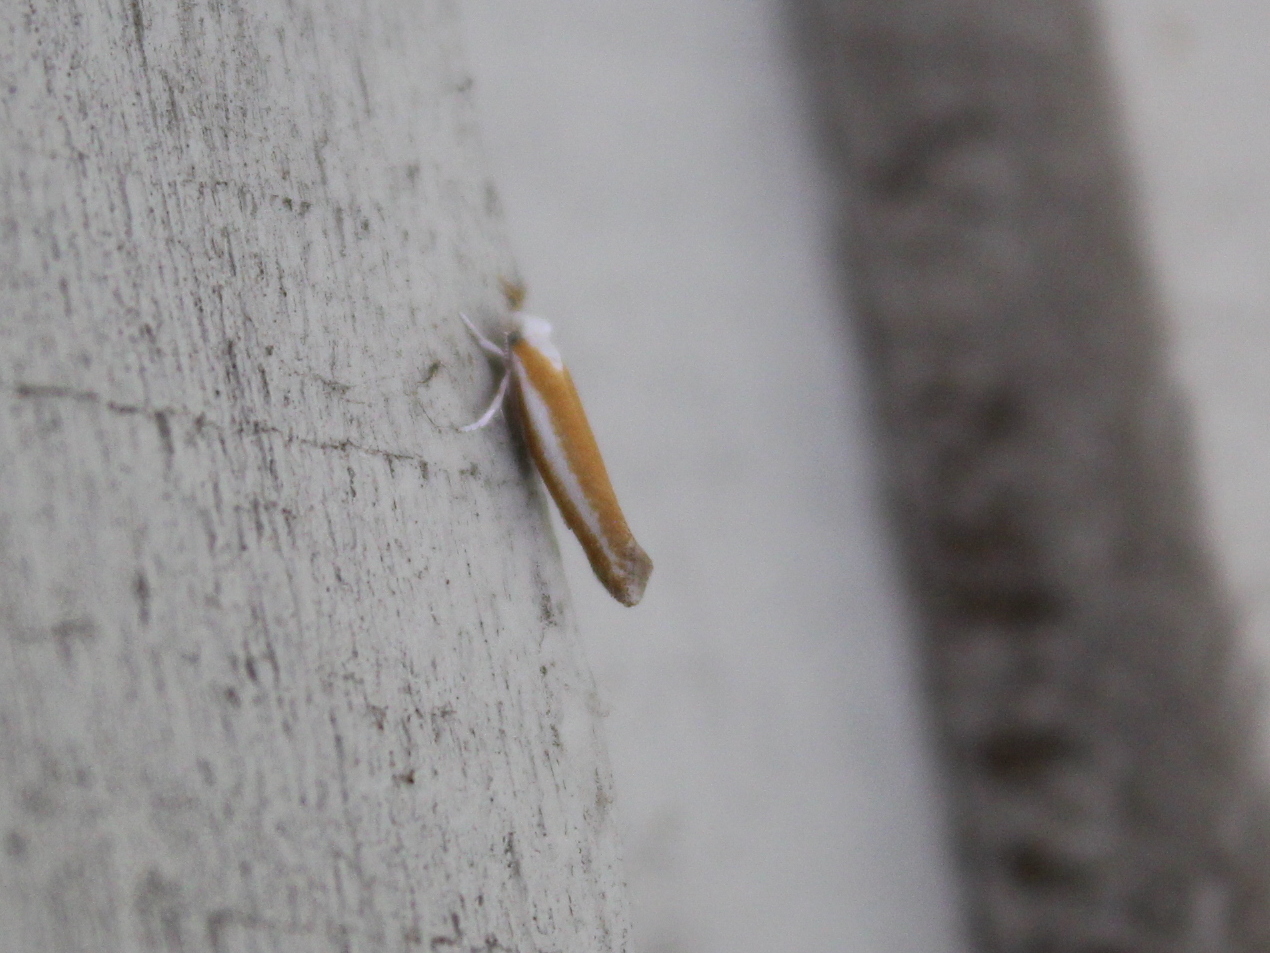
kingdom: Animalia
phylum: Arthropoda
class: Insecta
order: Lepidoptera
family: Yponomeutidae
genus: Zelleria
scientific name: Zelleria haimbachi
